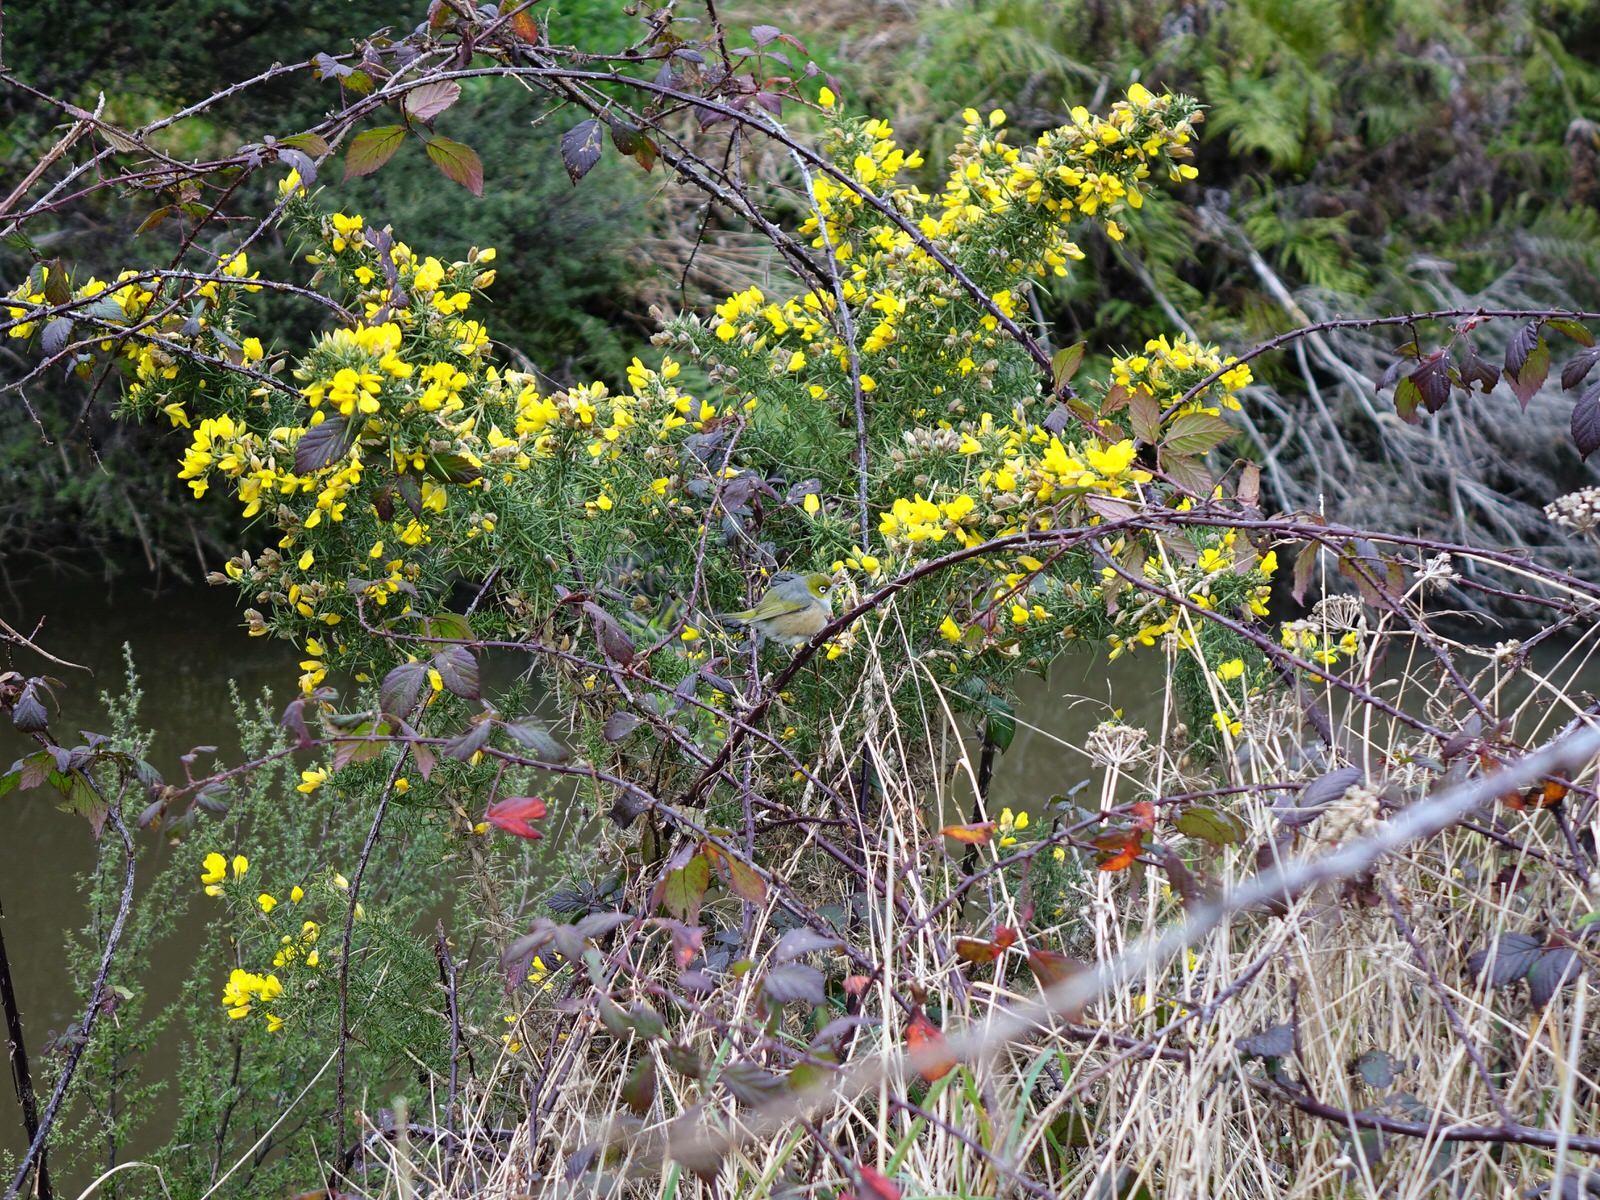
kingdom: Animalia
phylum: Chordata
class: Aves
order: Passeriformes
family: Zosteropidae
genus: Zosterops
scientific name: Zosterops lateralis
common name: Silvereye
